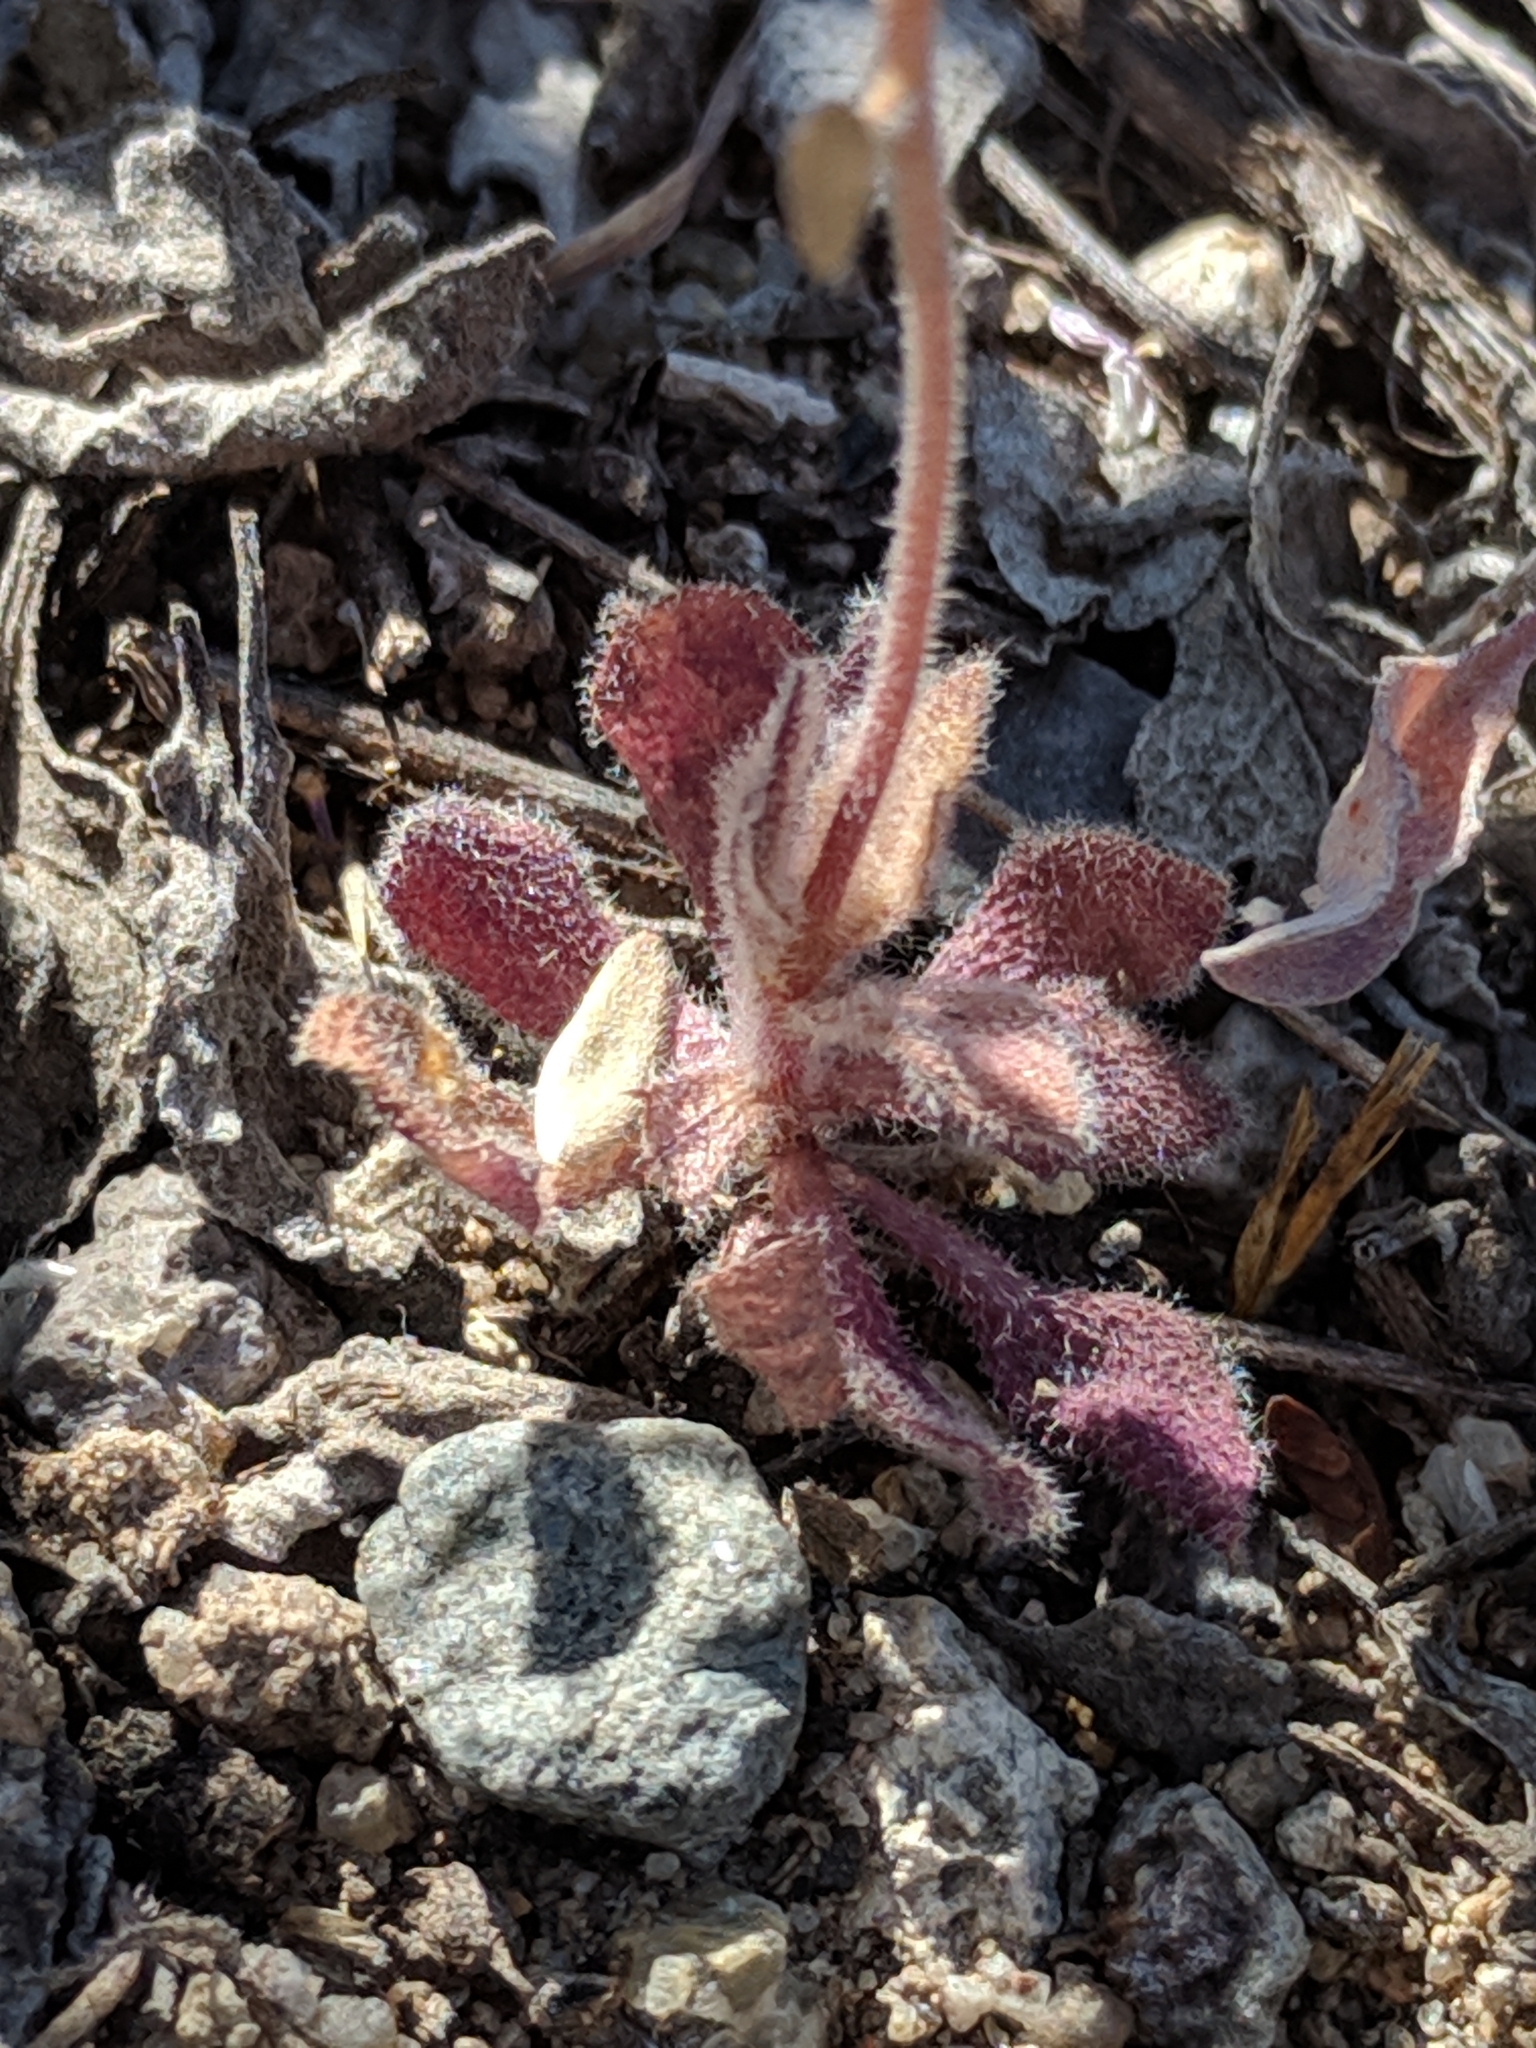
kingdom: Plantae
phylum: Tracheophyta
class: Magnoliopsida
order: Brassicales
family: Brassicaceae
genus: Tomostima
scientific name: Tomostima cuneifolia
